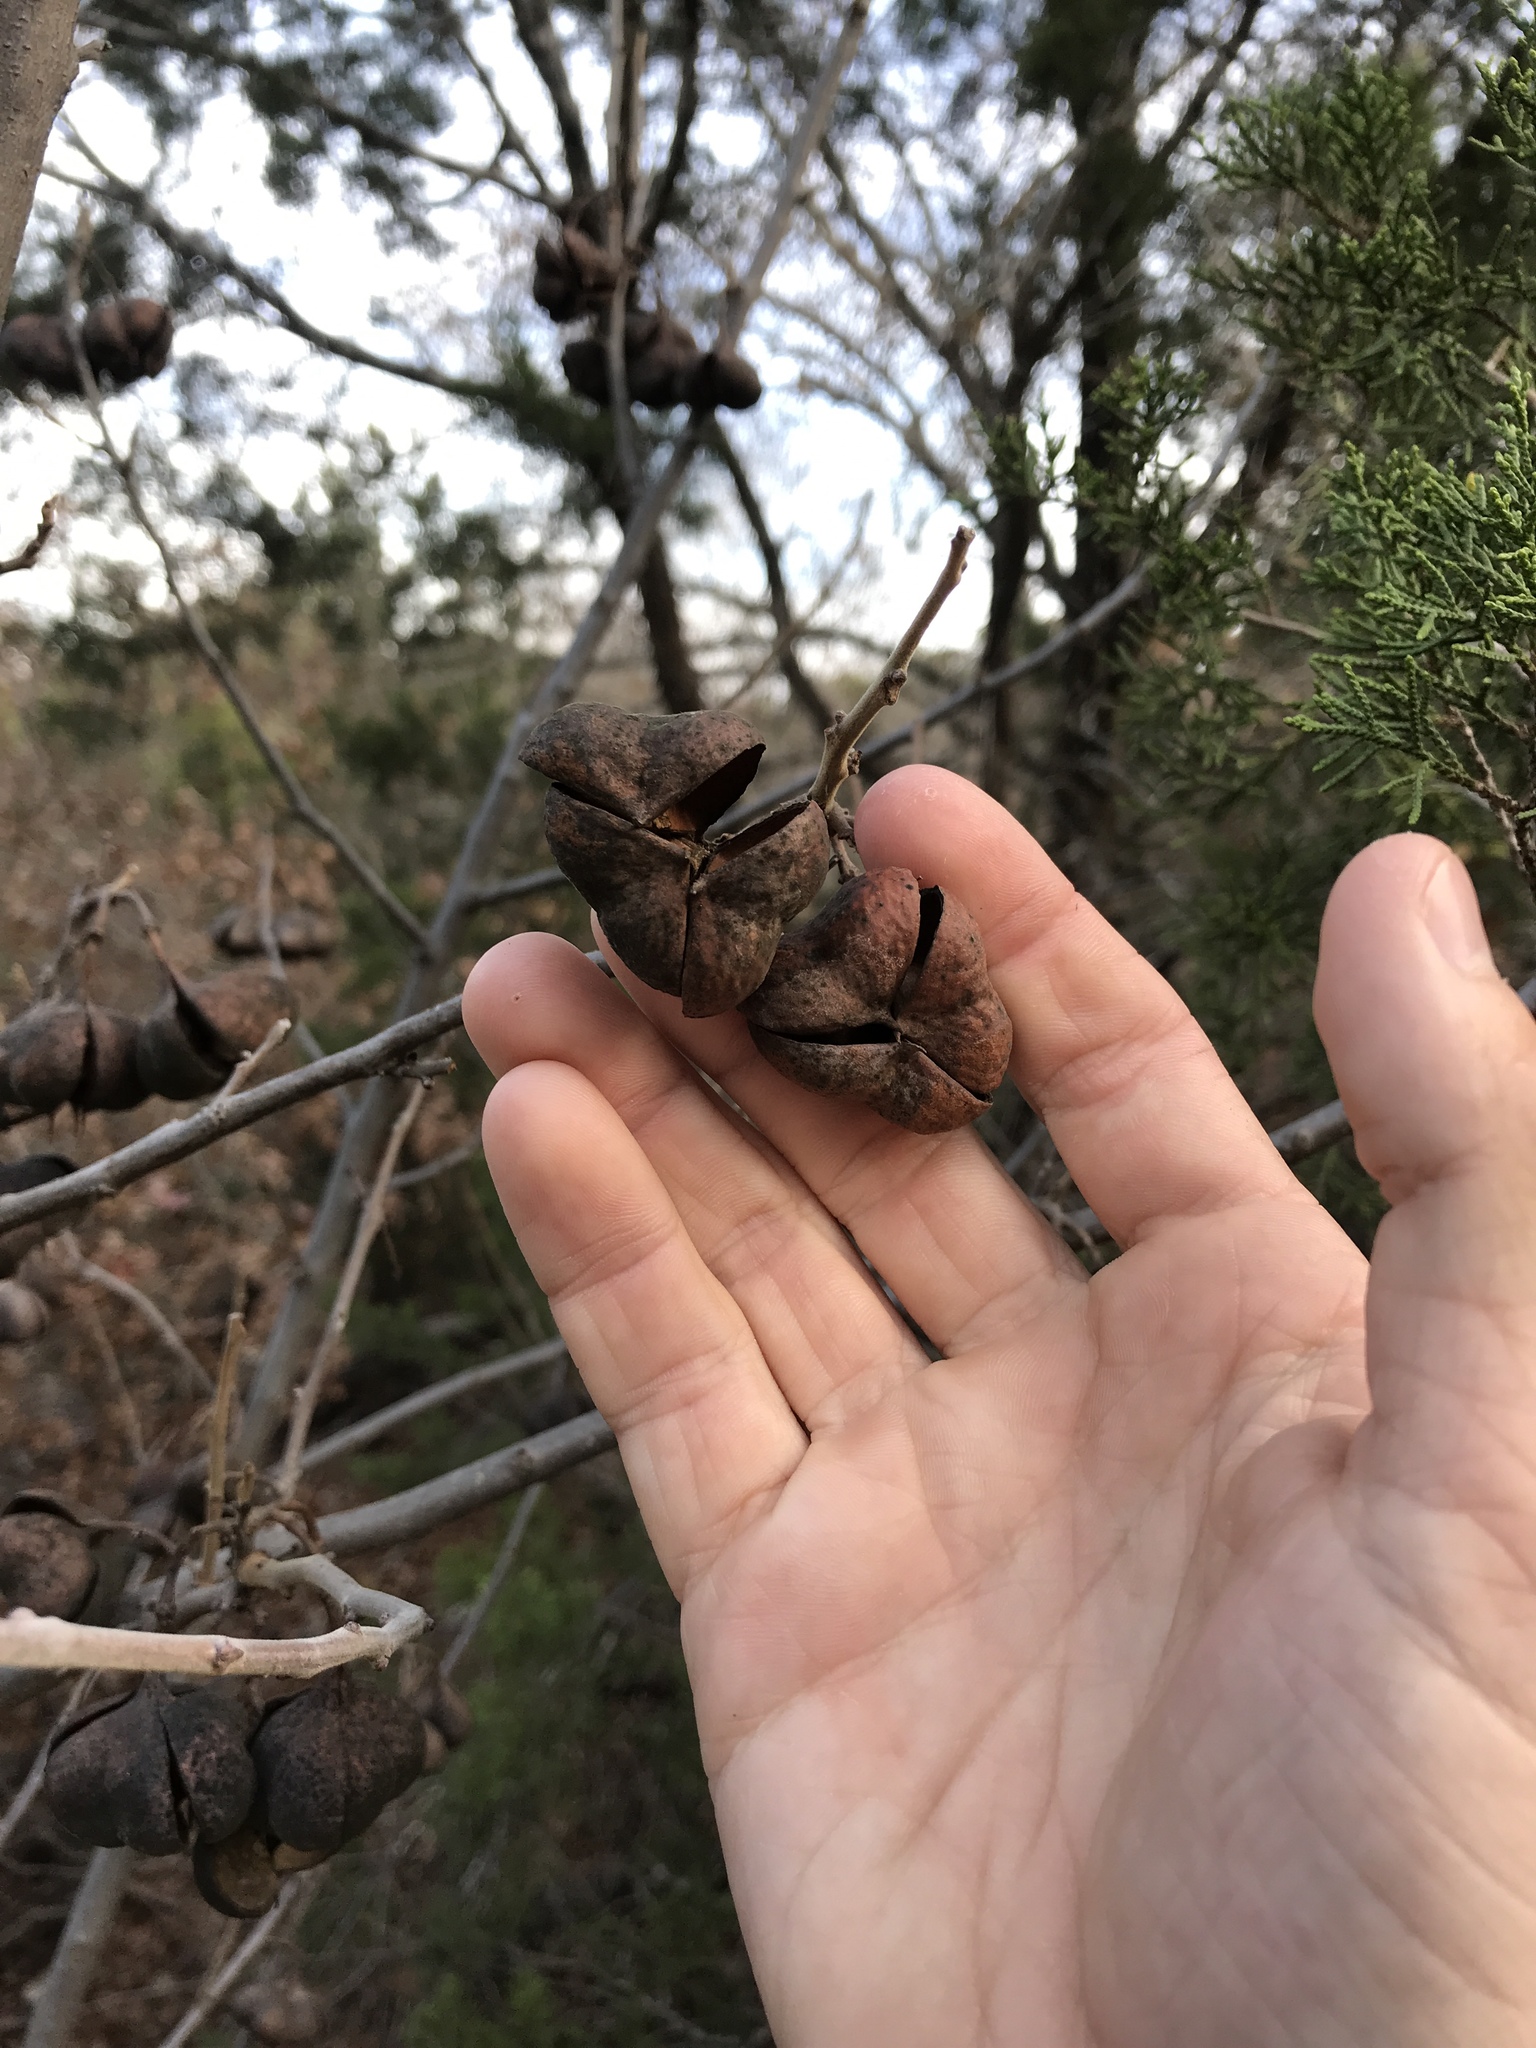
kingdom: Plantae
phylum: Tracheophyta
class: Magnoliopsida
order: Sapindales
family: Sapindaceae
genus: Ungnadia
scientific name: Ungnadia speciosa
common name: Texas-buckeye
